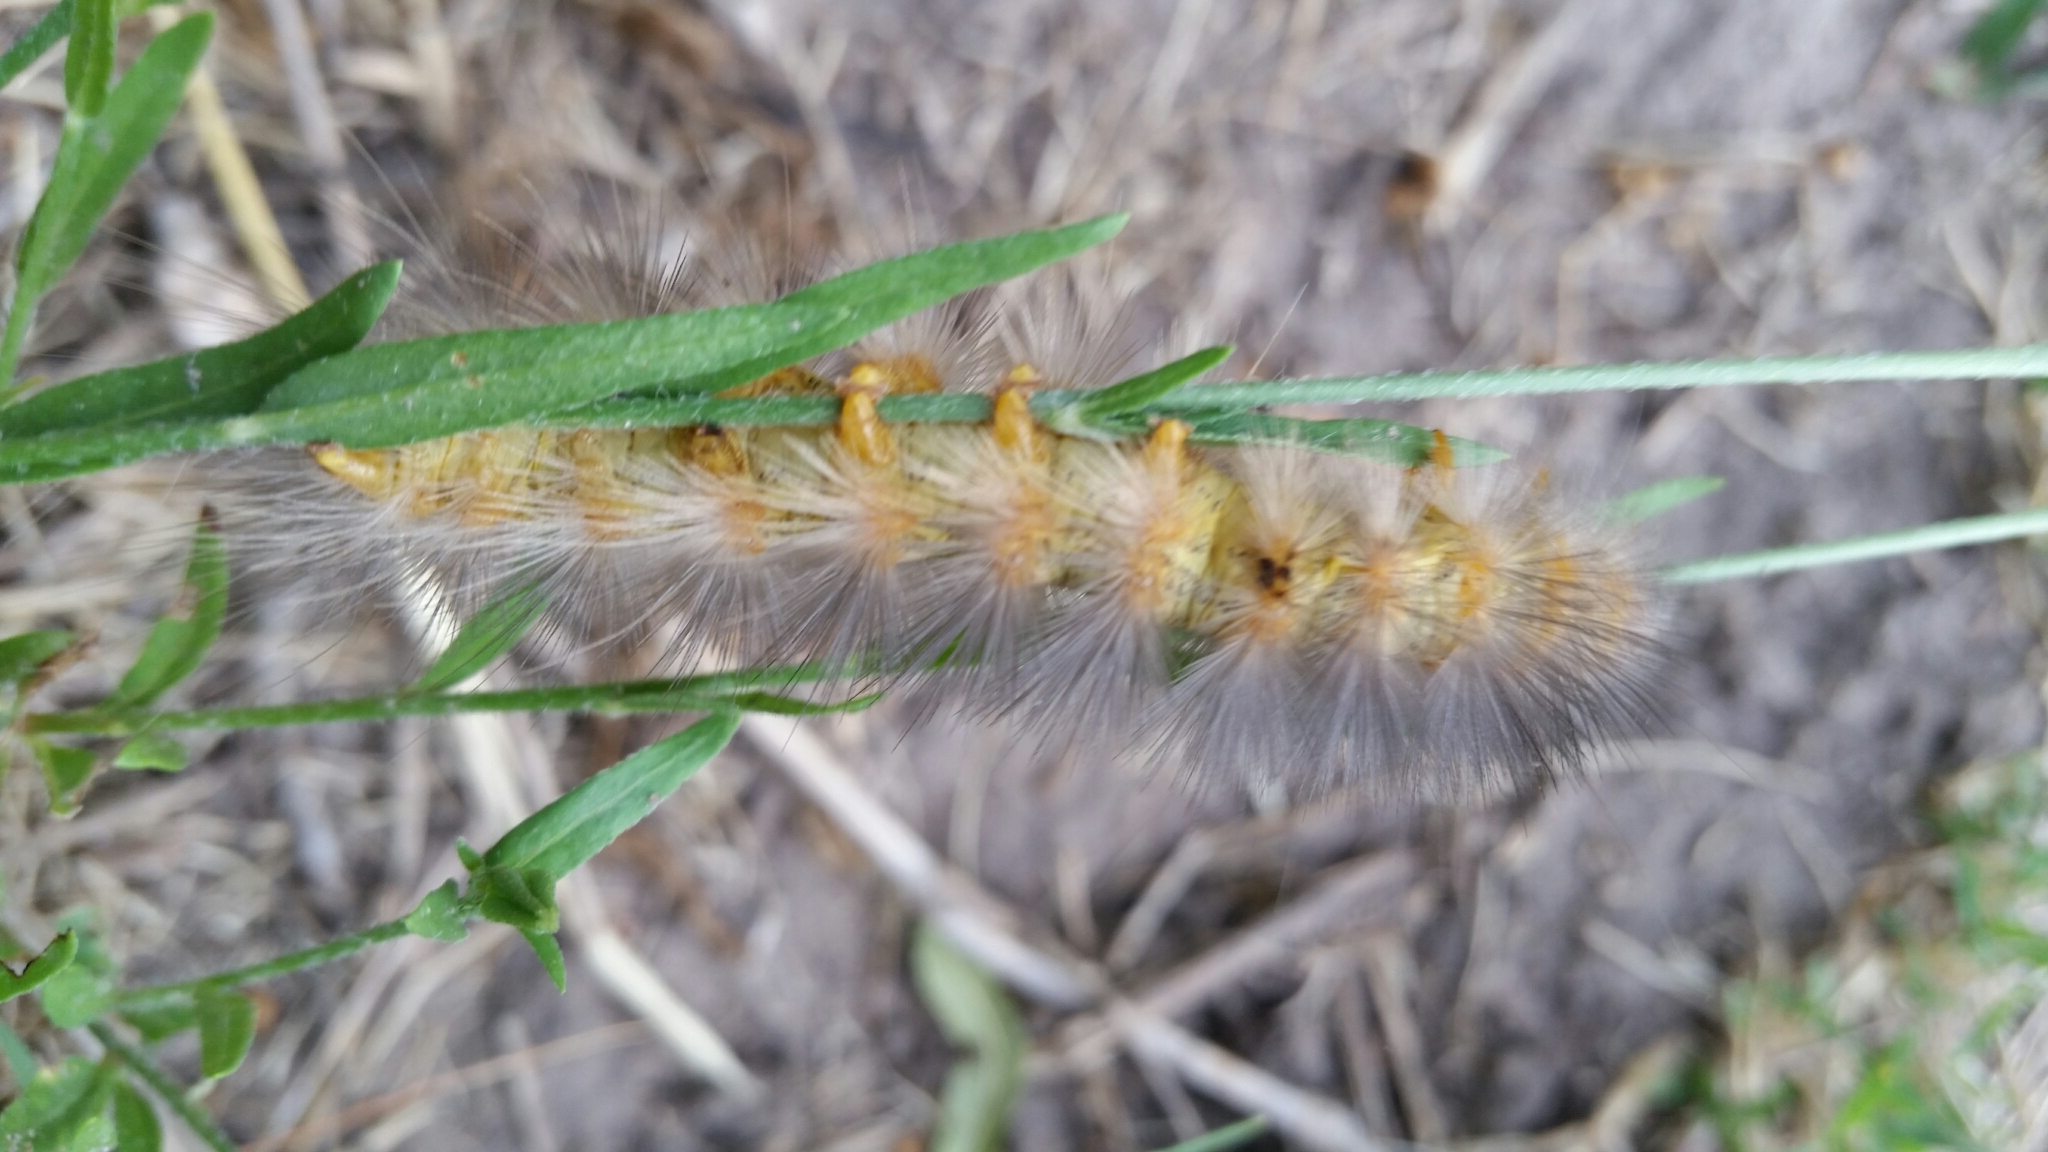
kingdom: Animalia
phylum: Arthropoda
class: Insecta
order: Lepidoptera
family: Erebidae
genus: Estigmene
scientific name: Estigmene acrea
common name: Salt marsh moth
